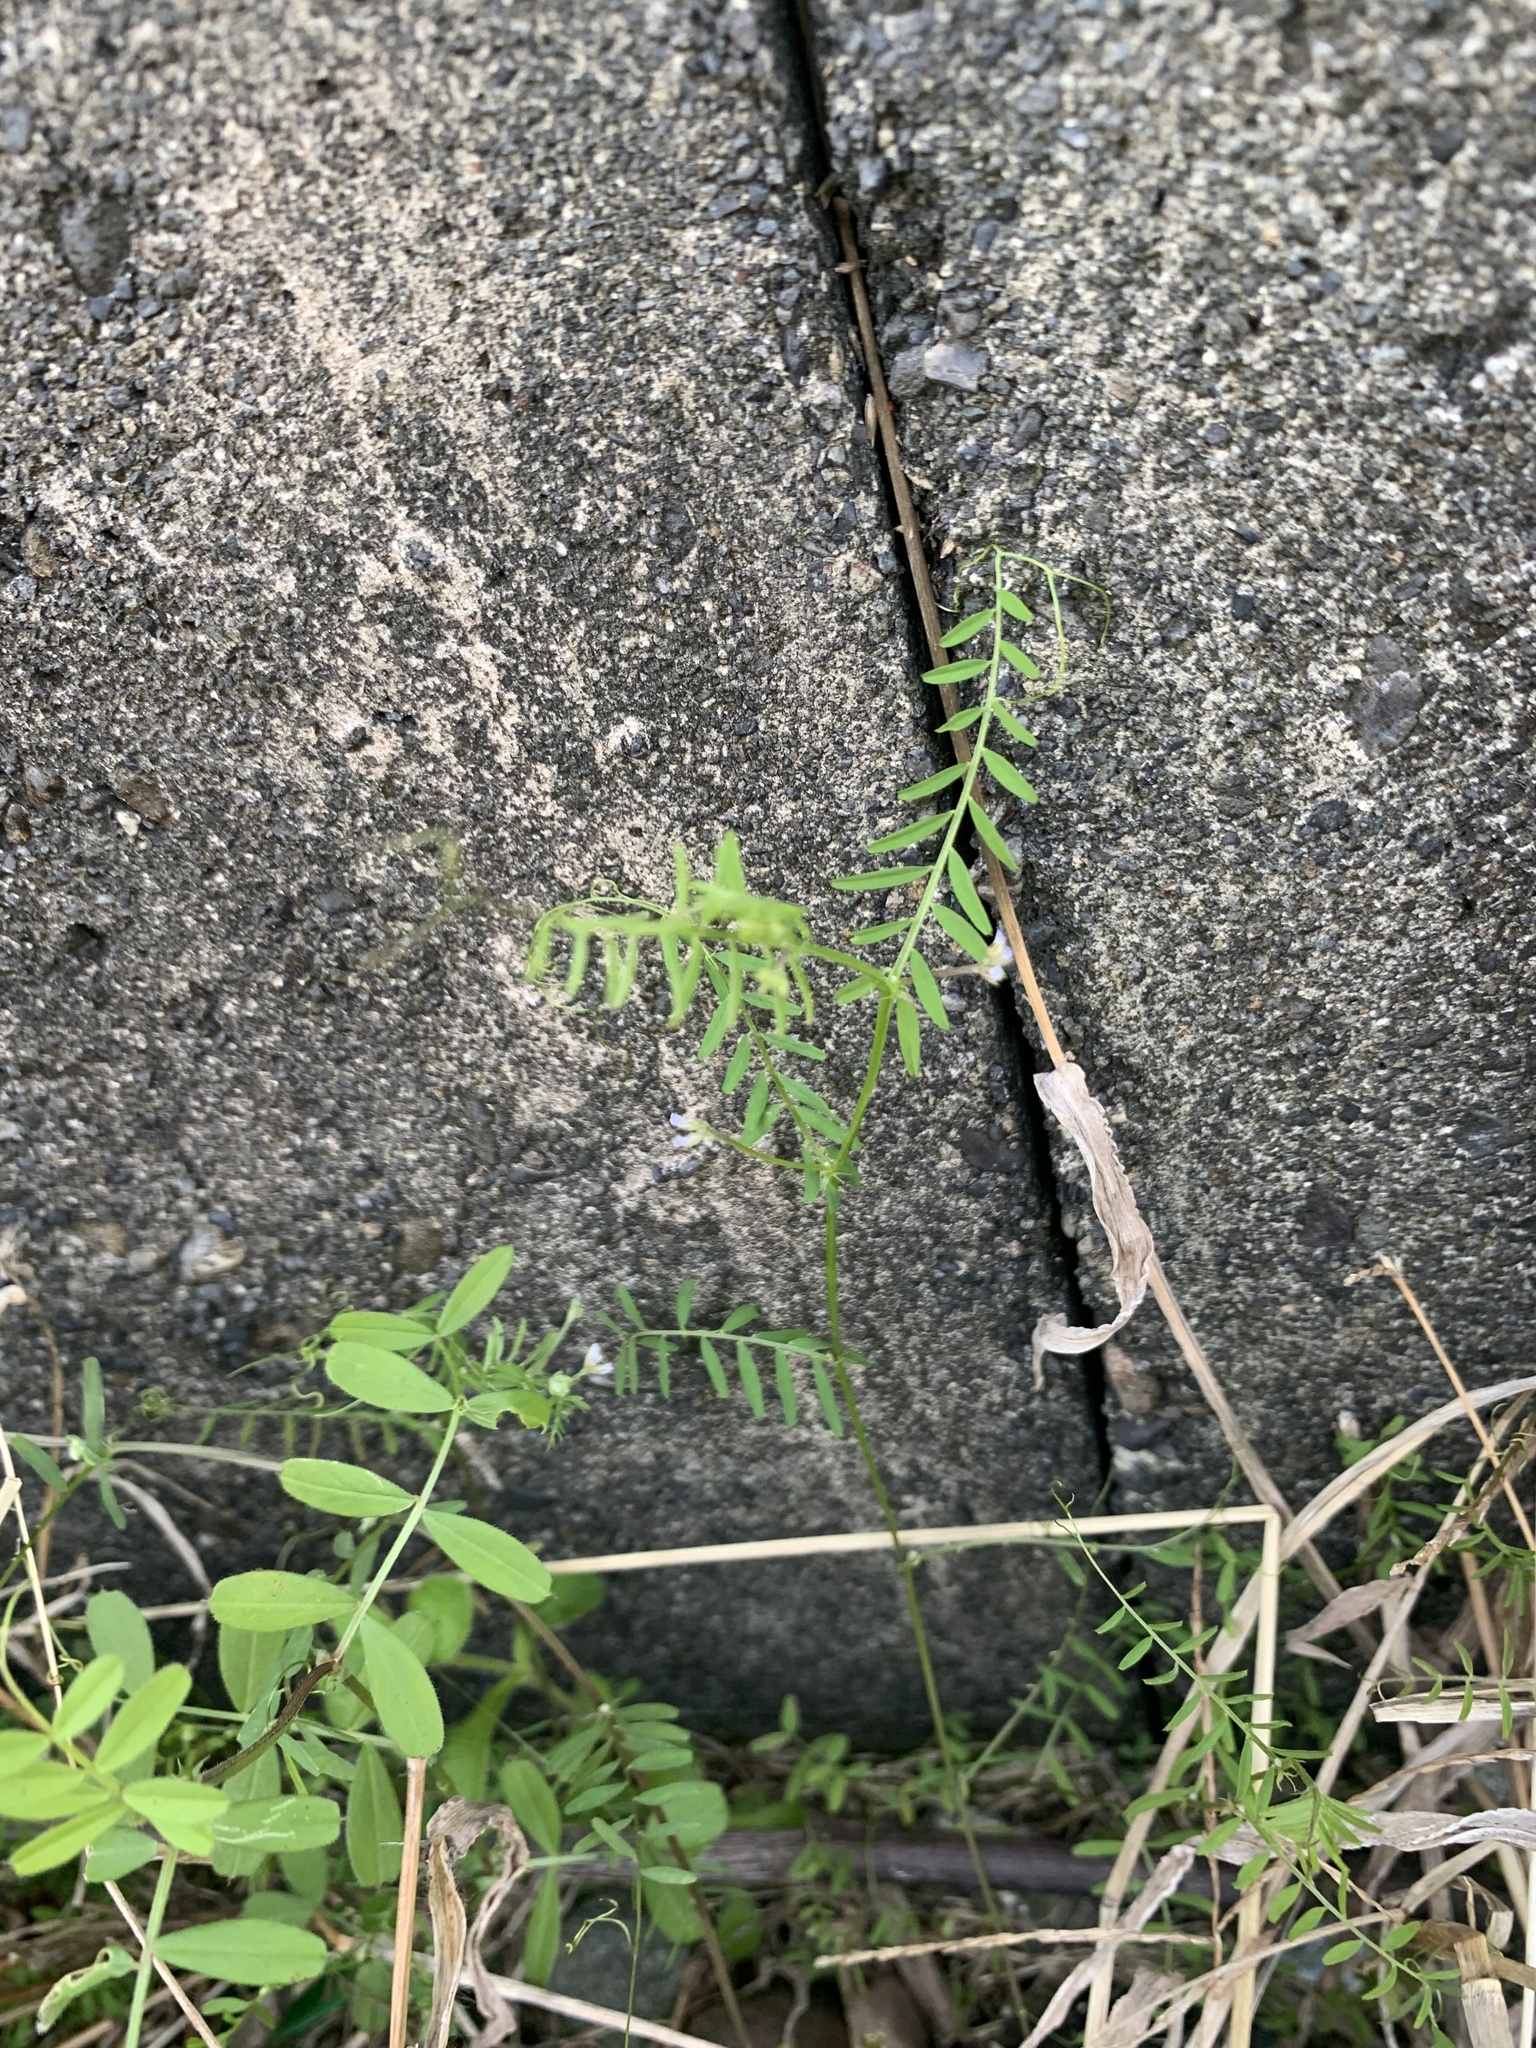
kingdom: Plantae
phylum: Tracheophyta
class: Magnoliopsida
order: Fabales
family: Fabaceae
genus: Vicia
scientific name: Vicia hirsuta
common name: Tiny vetch
